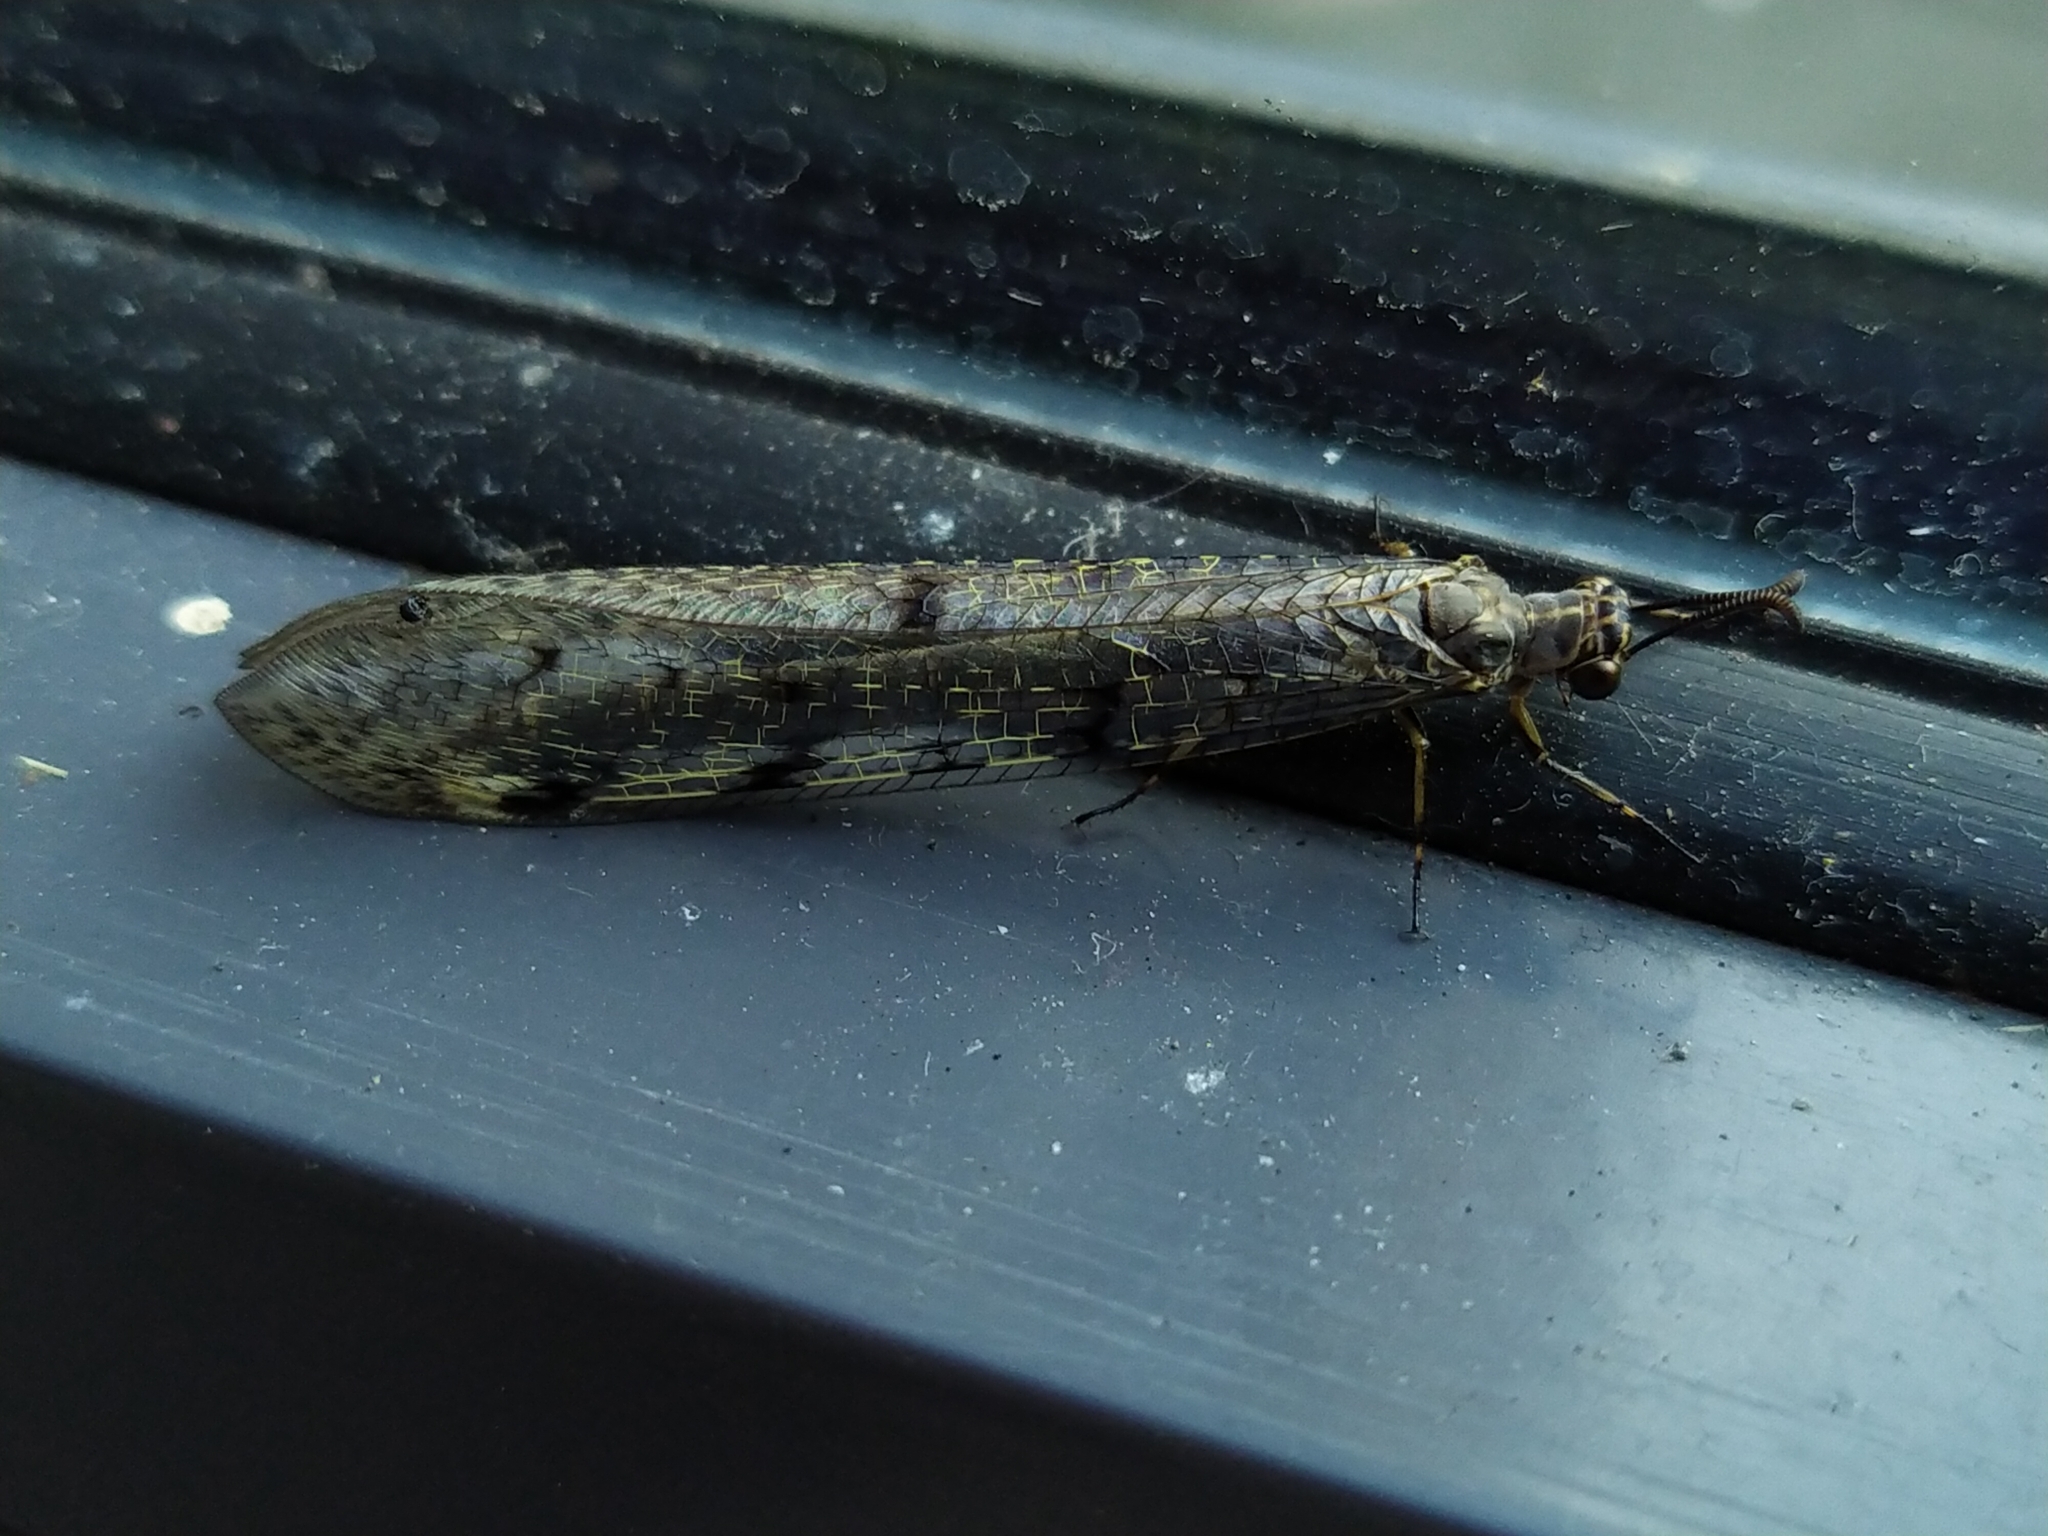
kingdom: Animalia
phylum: Arthropoda
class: Insecta
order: Neuroptera
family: Myrmeleontidae
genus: Euroleon
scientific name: Euroleon nostras
